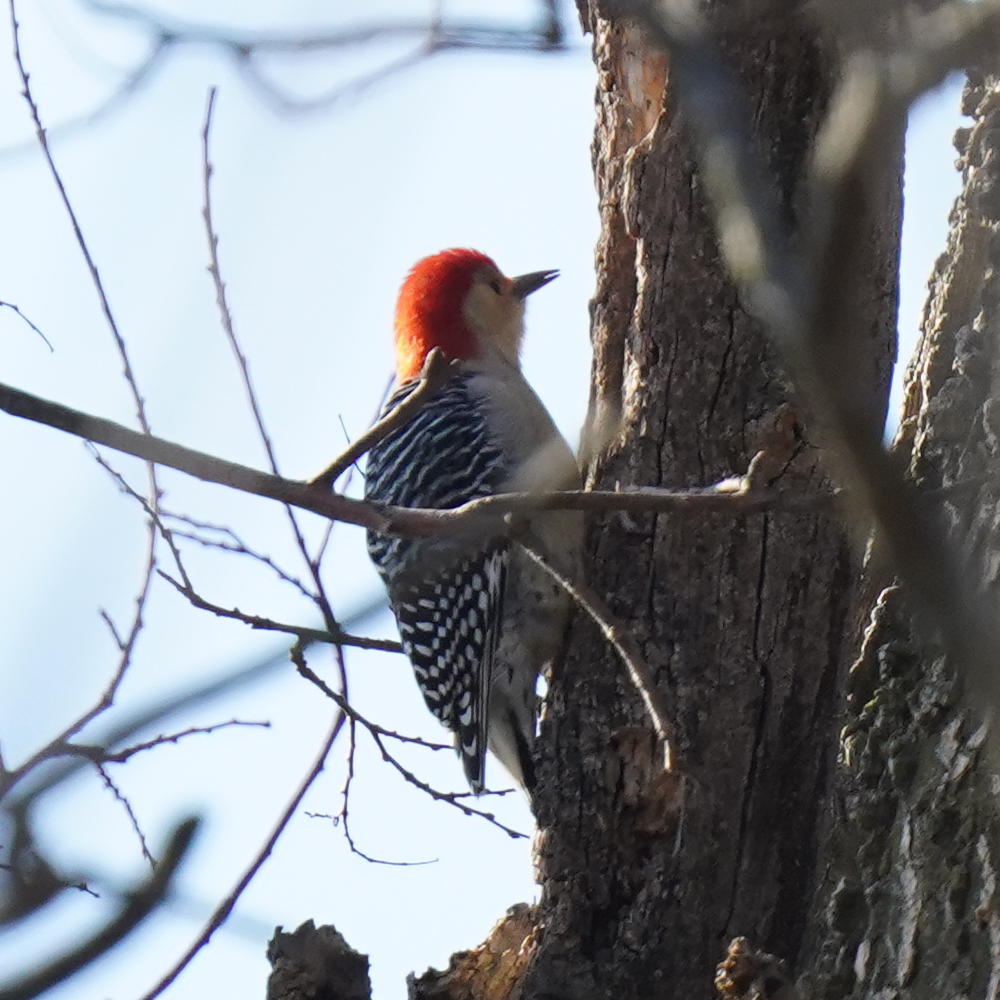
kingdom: Animalia
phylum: Chordata
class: Aves
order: Piciformes
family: Picidae
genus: Melanerpes
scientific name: Melanerpes carolinus
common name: Red-bellied woodpecker
